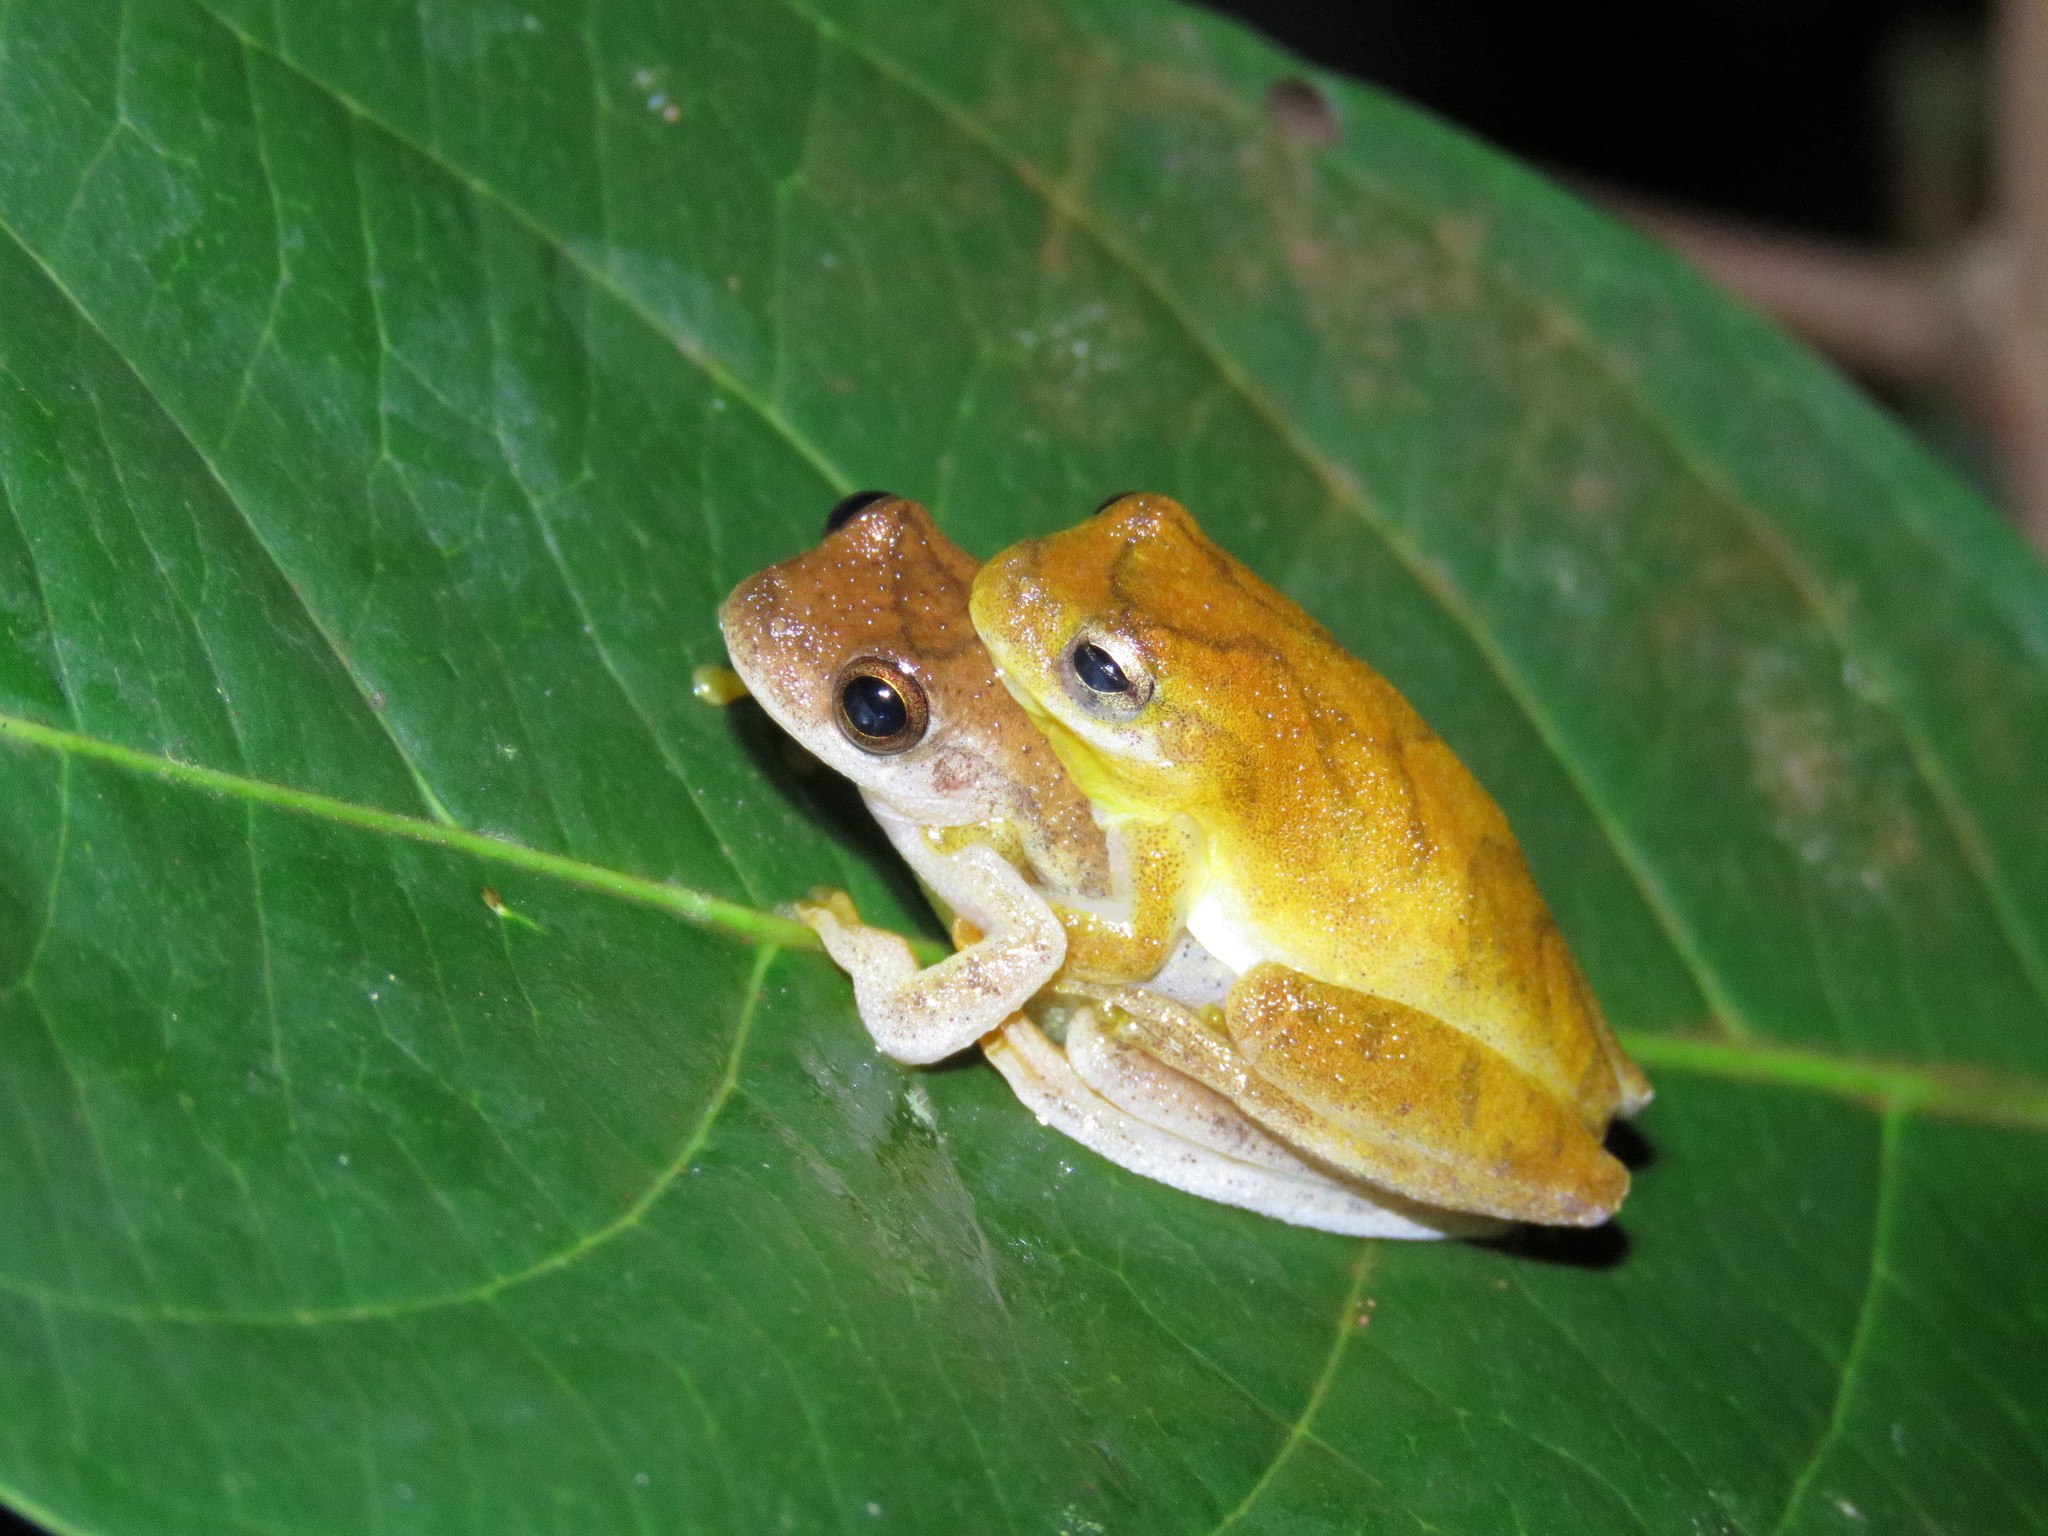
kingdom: Animalia
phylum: Chordata
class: Amphibia
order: Anura
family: Hylidae
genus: Dendropsophus
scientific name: Dendropsophus minutus
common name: Lesser treefrog
